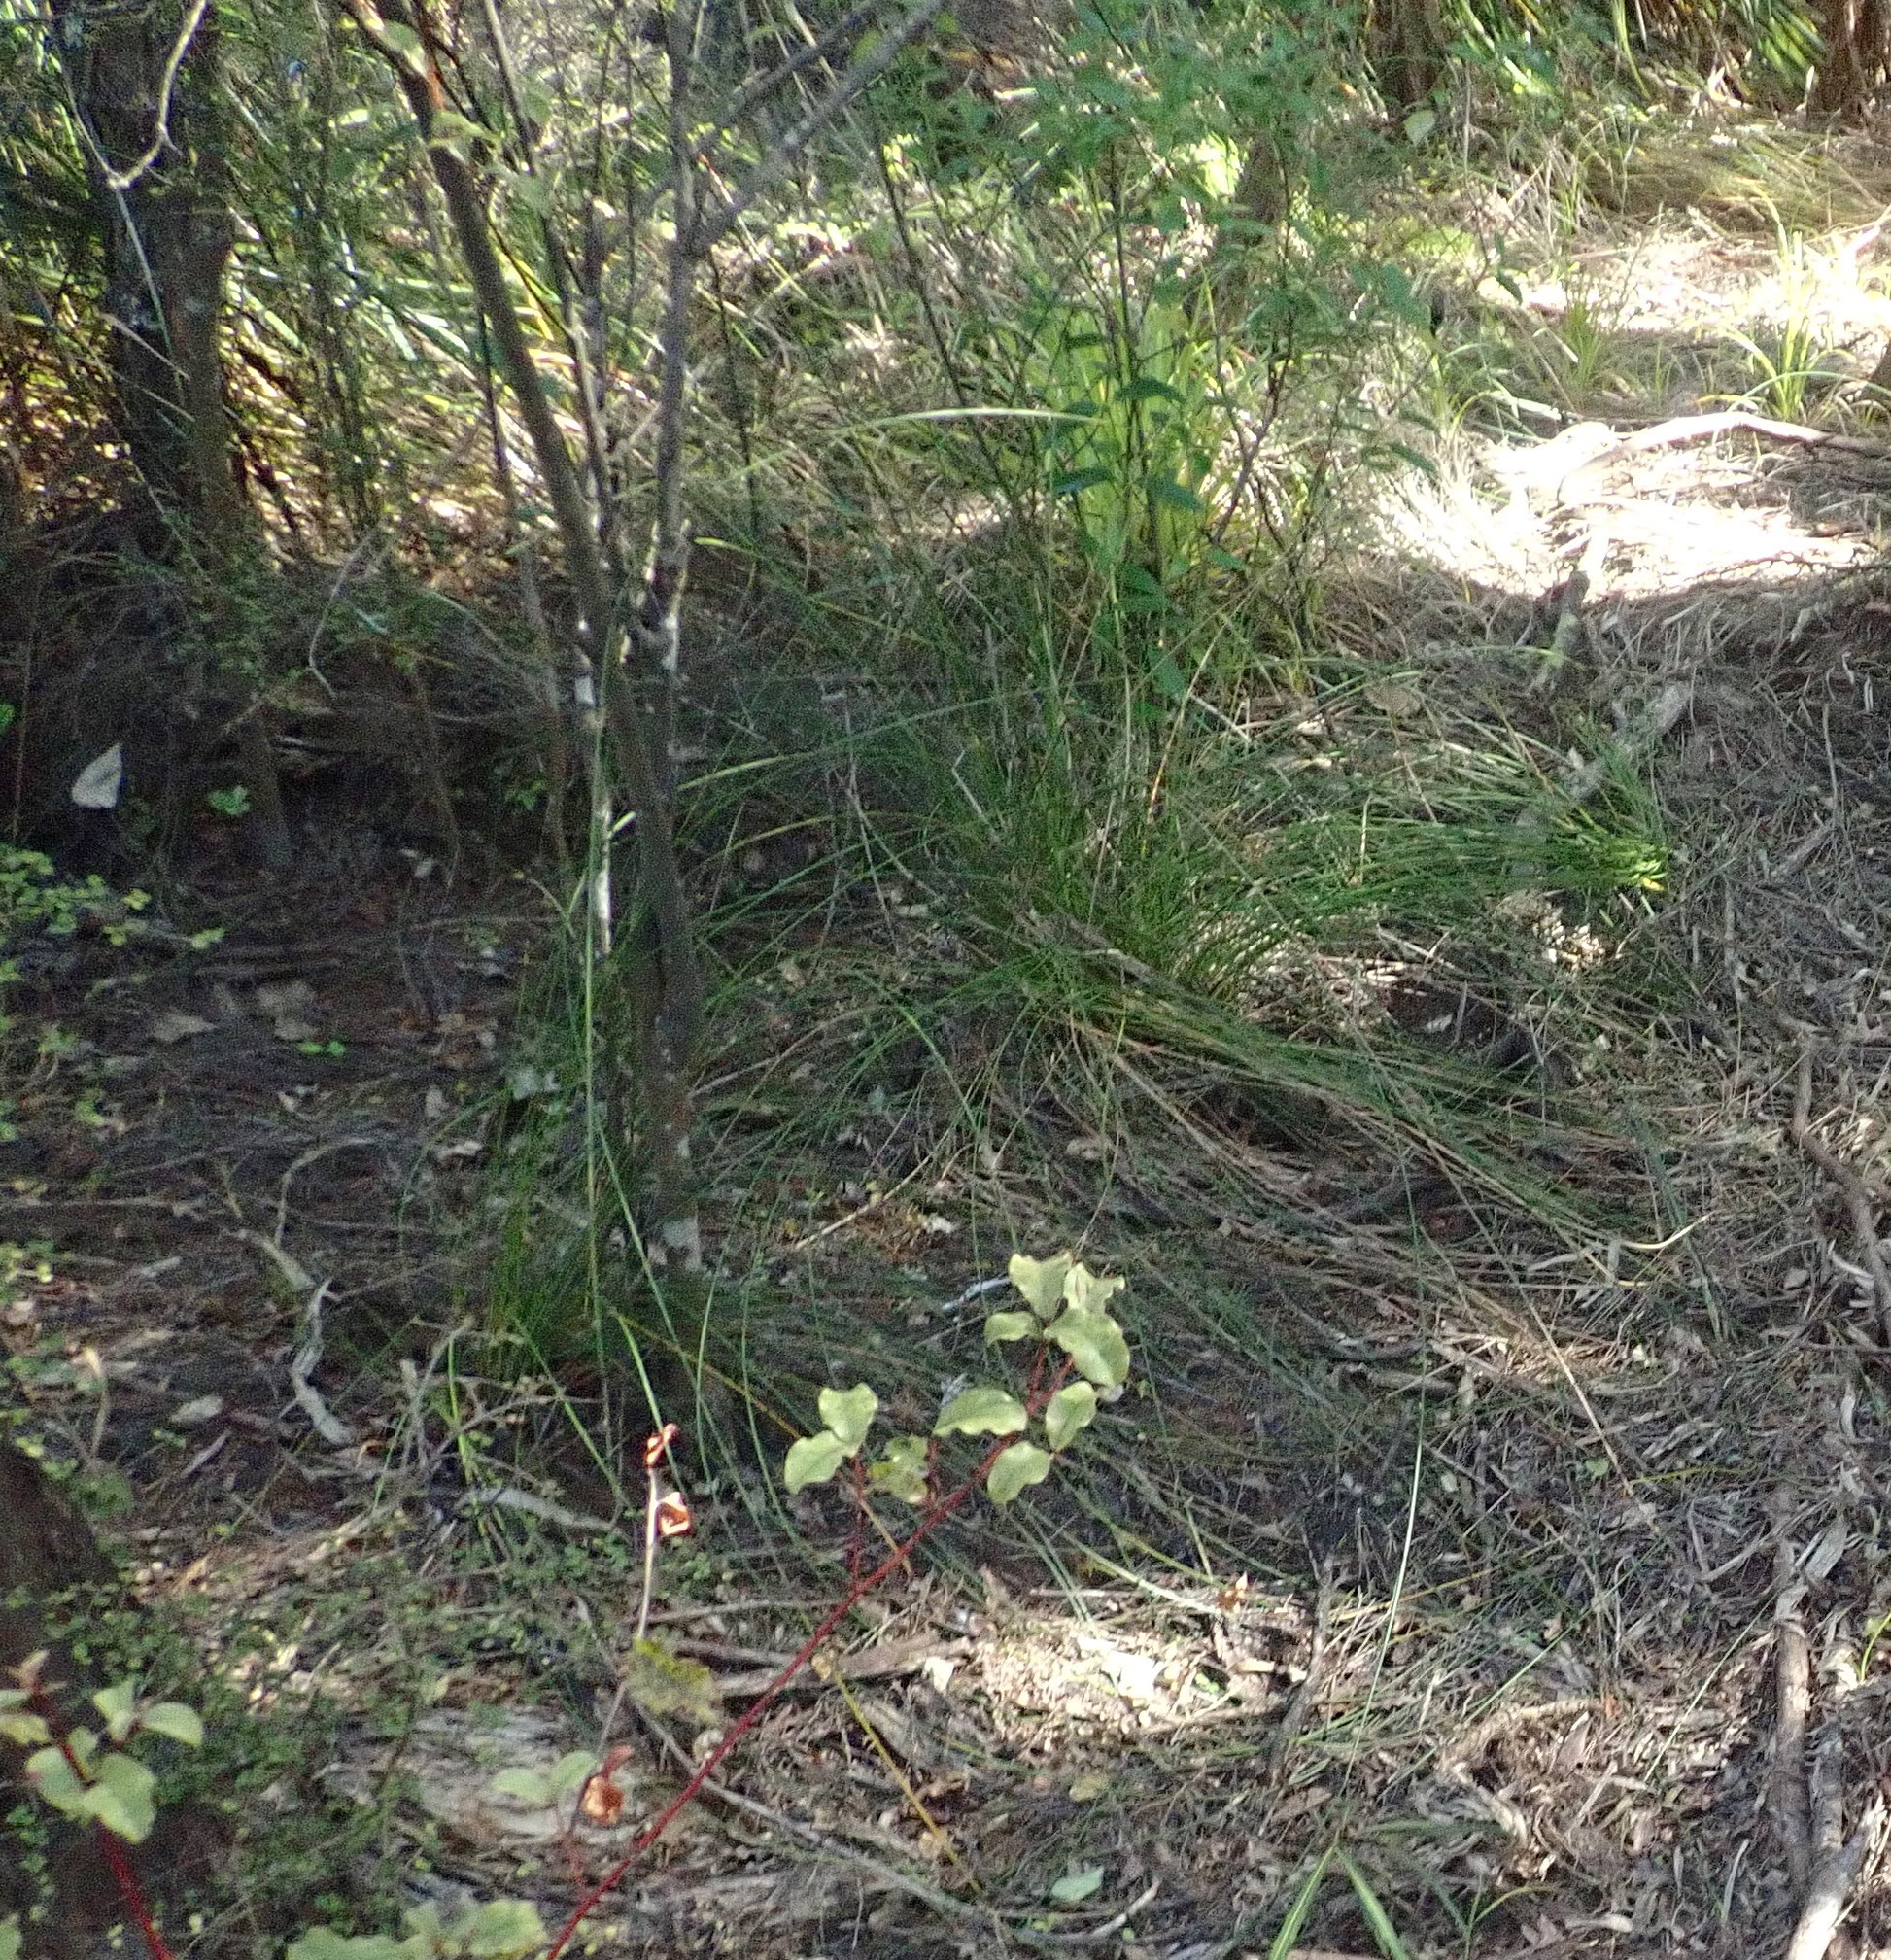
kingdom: Plantae
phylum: Tracheophyta
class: Magnoliopsida
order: Ericales
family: Primulaceae
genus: Myrsine
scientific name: Myrsine australis
